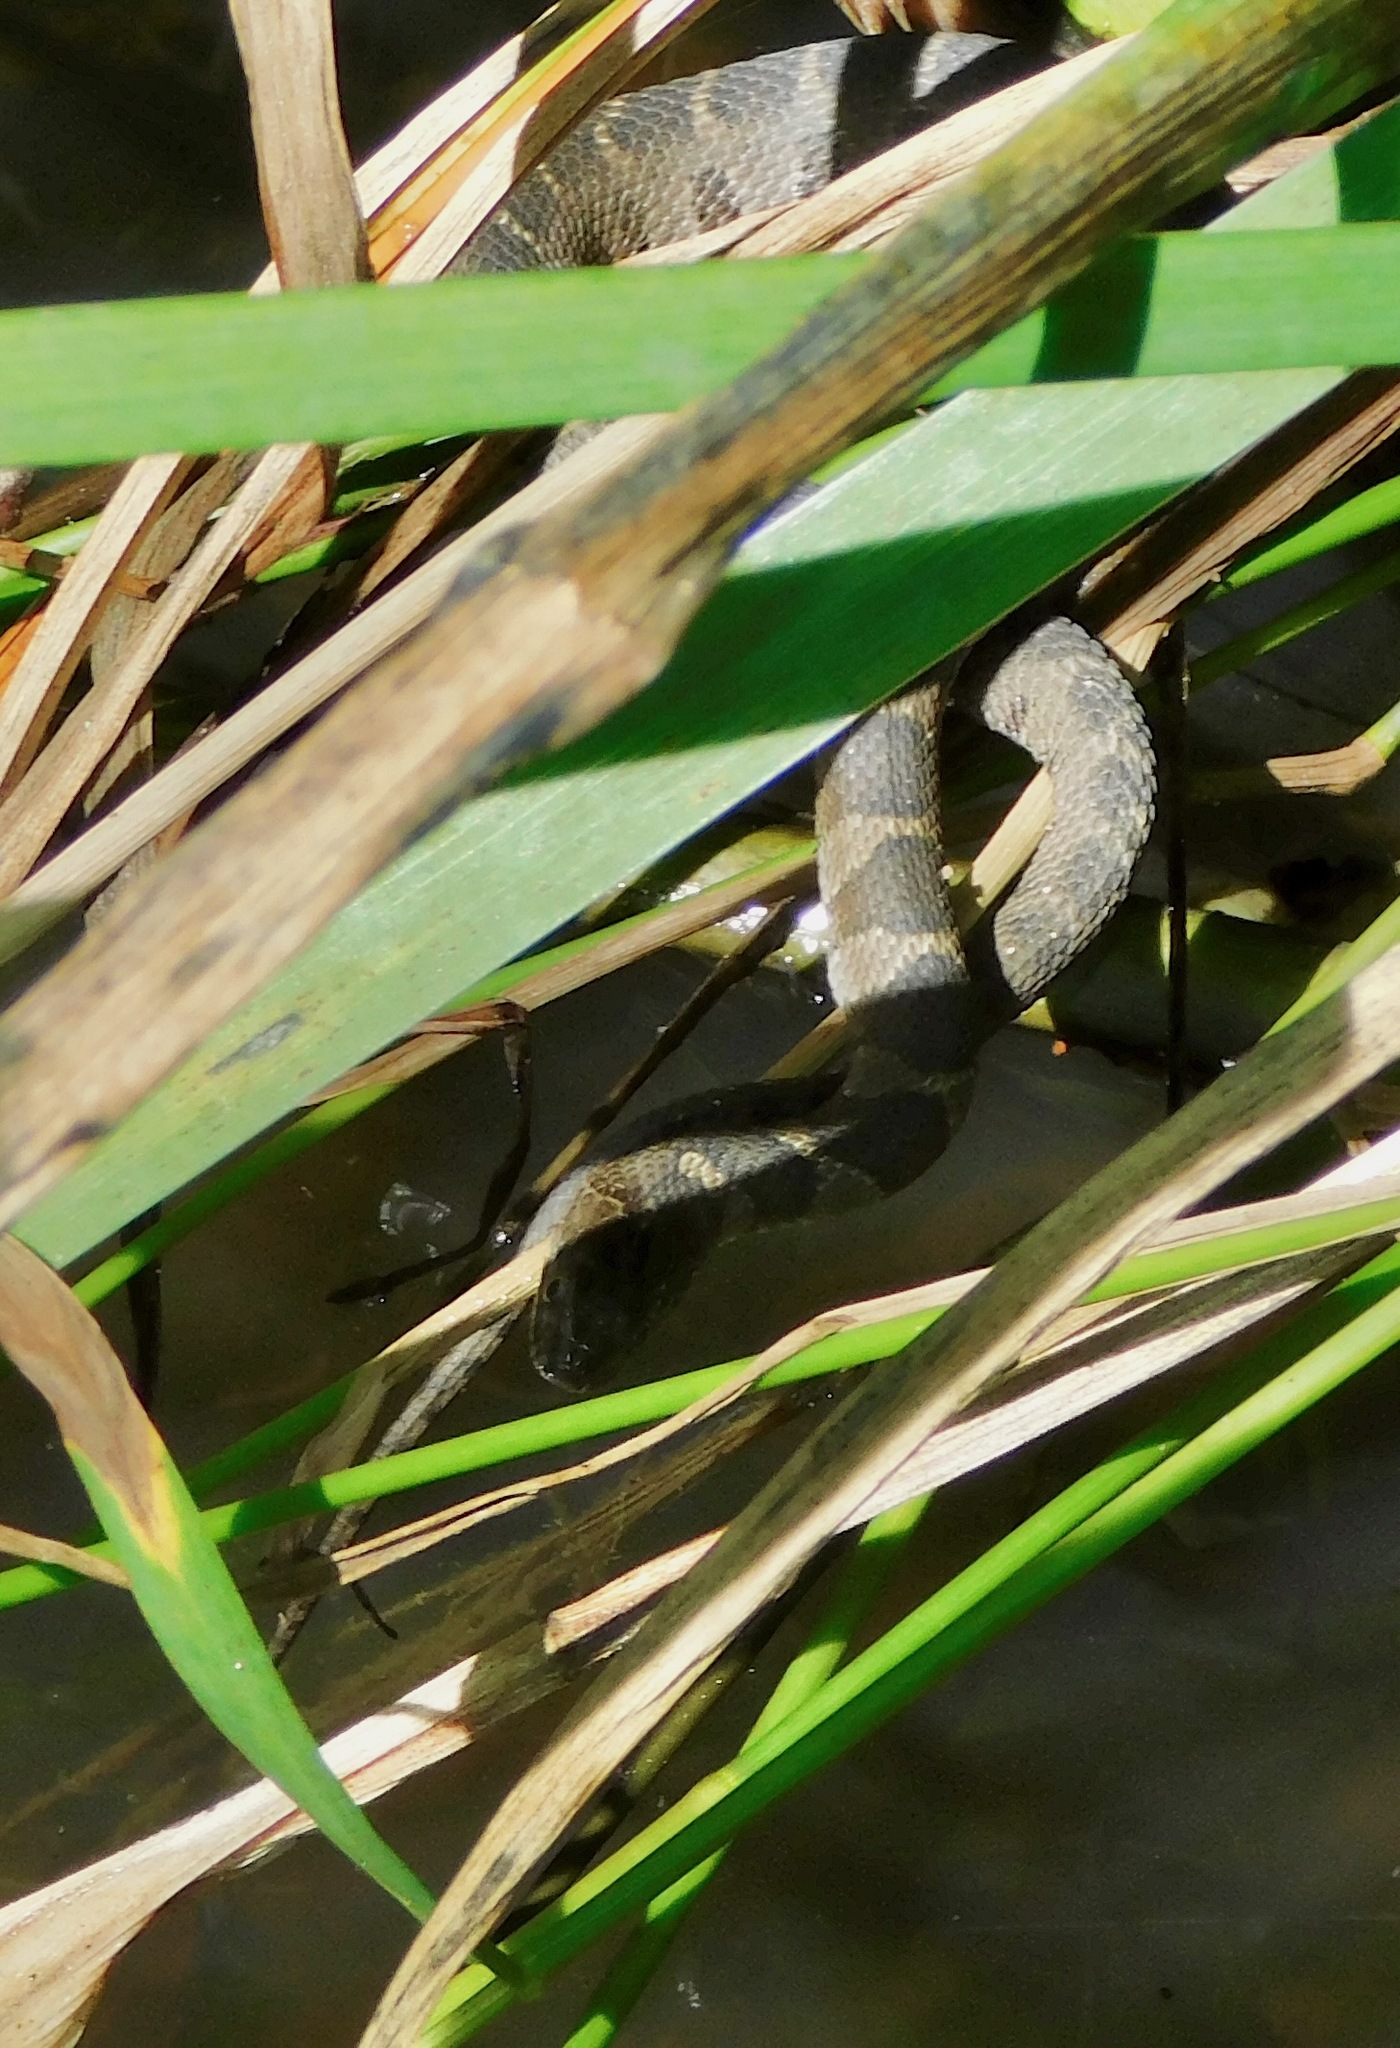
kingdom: Animalia
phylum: Chordata
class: Squamata
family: Colubridae
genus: Nerodia
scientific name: Nerodia sipedon
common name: Northern water snake
